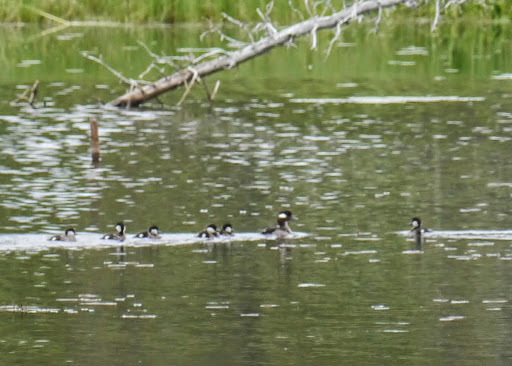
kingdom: Animalia
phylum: Chordata
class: Aves
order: Anseriformes
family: Anatidae
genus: Bucephala
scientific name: Bucephala albeola
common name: Bufflehead
